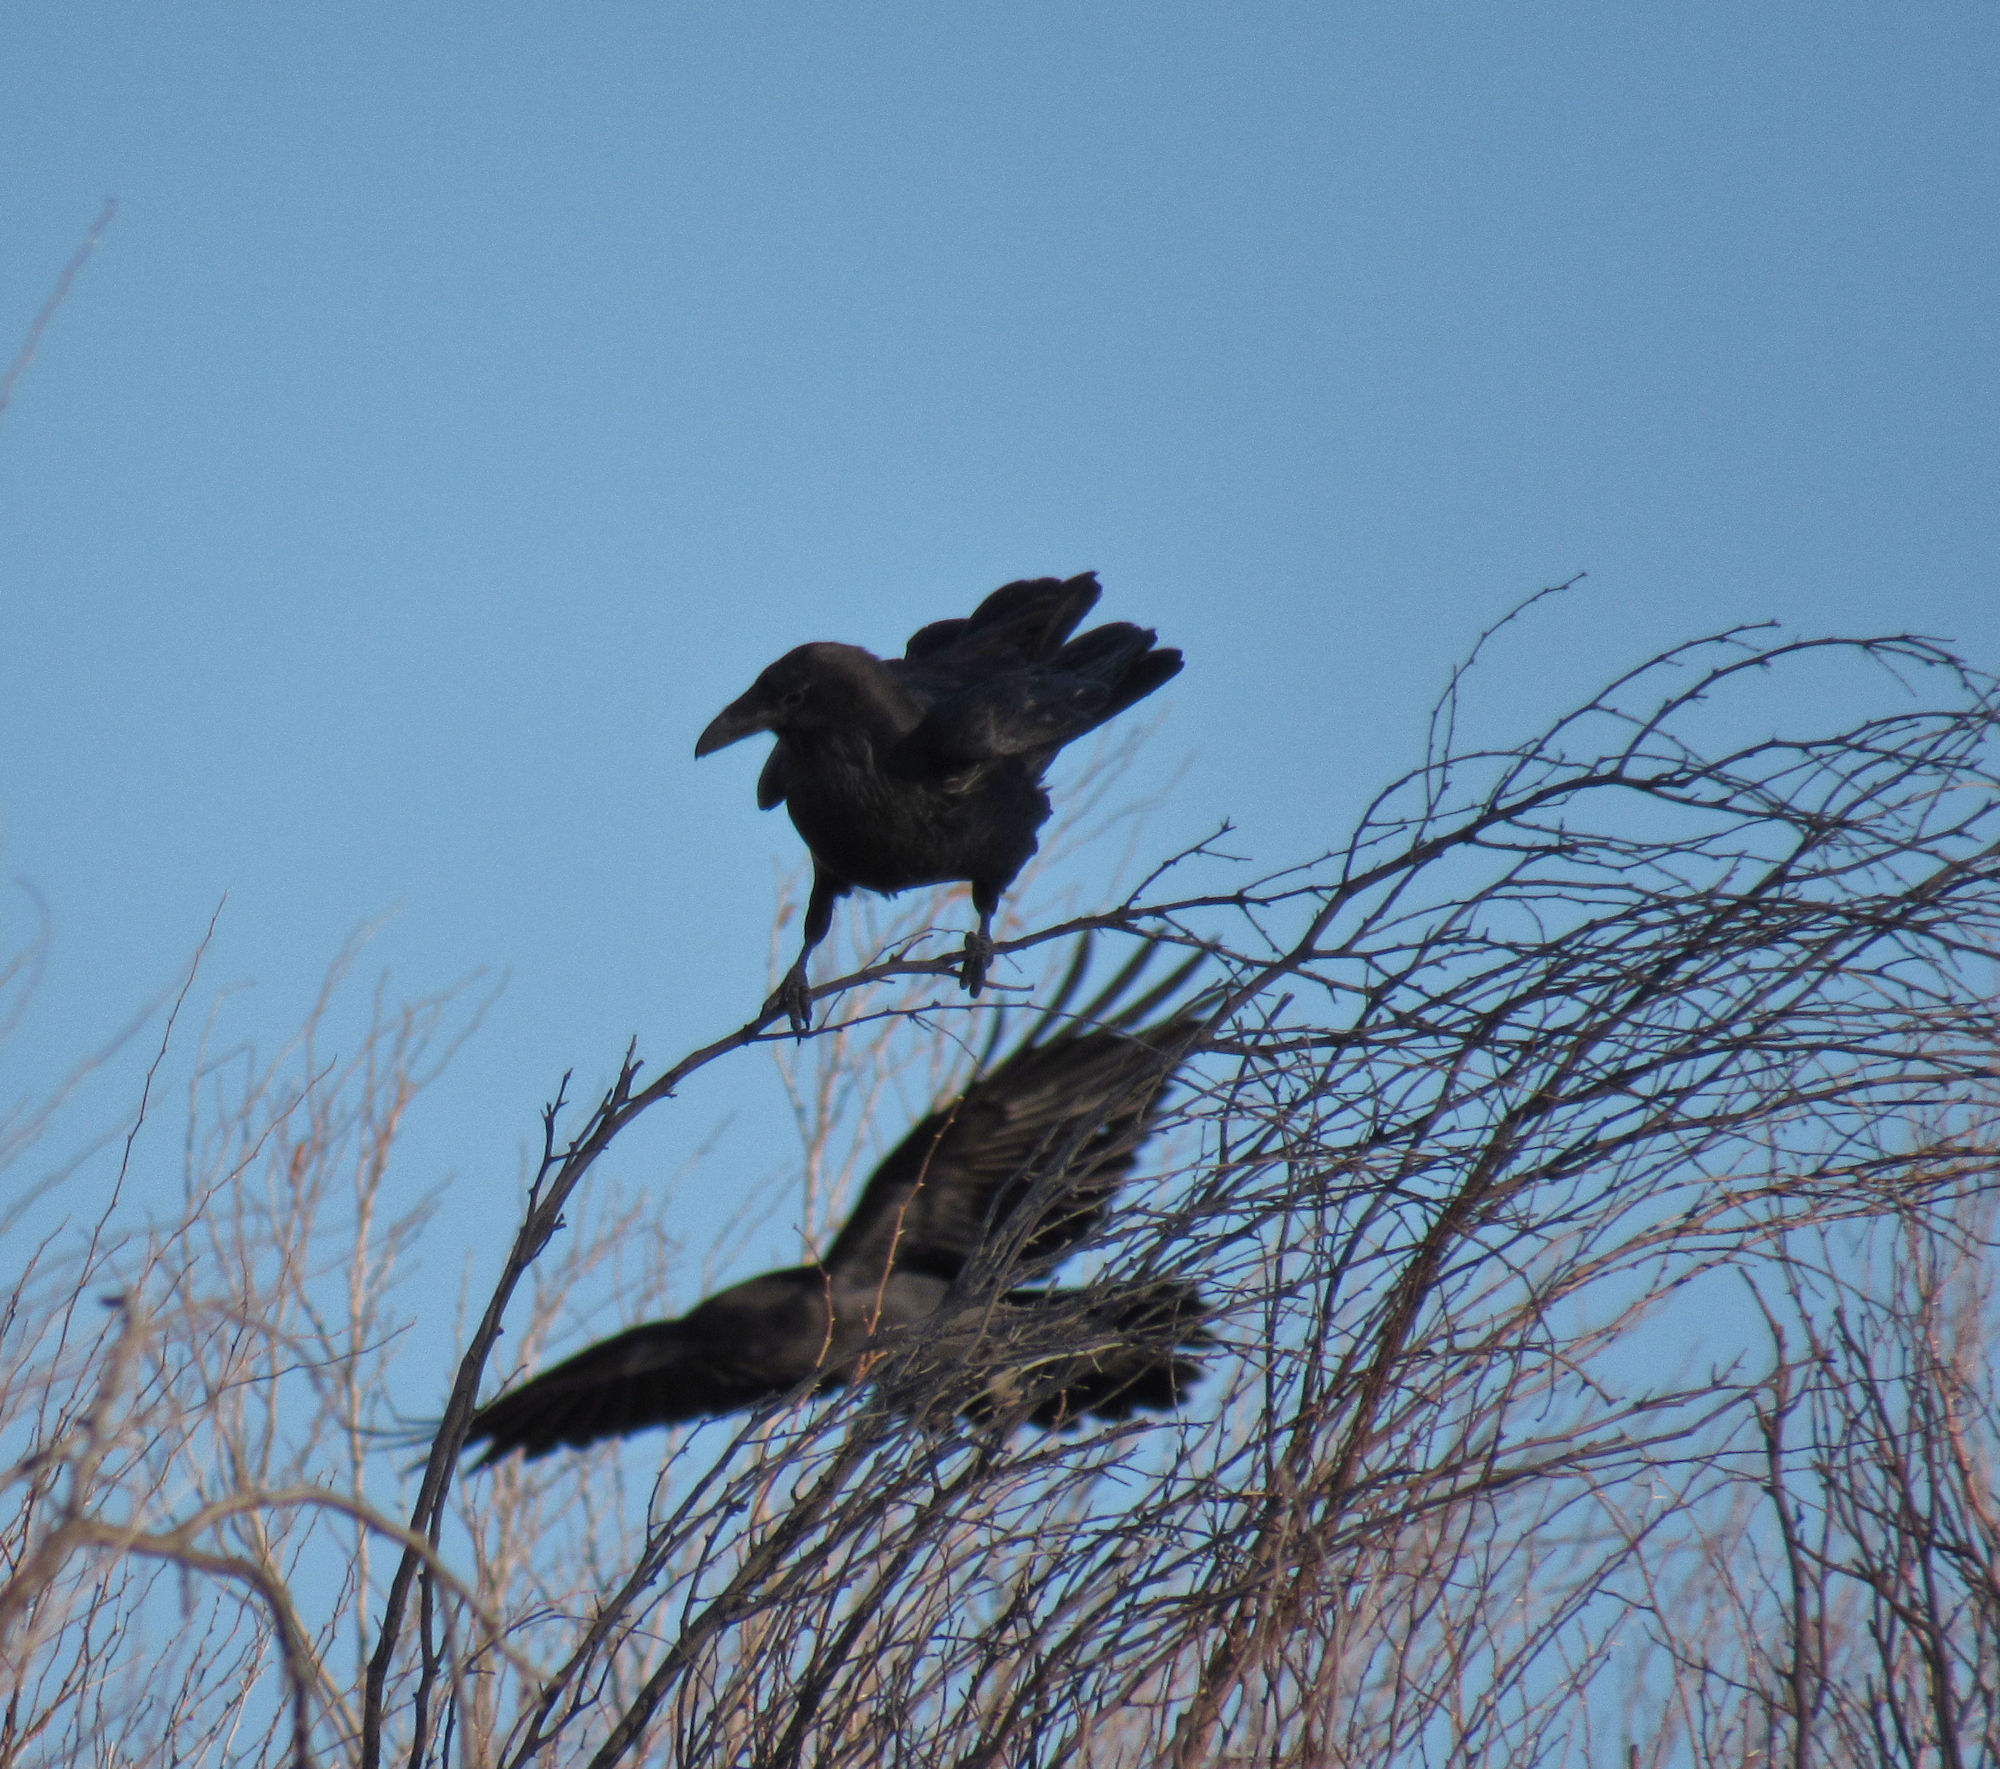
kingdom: Animalia
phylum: Chordata
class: Aves
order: Passeriformes
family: Corvidae
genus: Corvus
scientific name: Corvus corax
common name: Common raven
